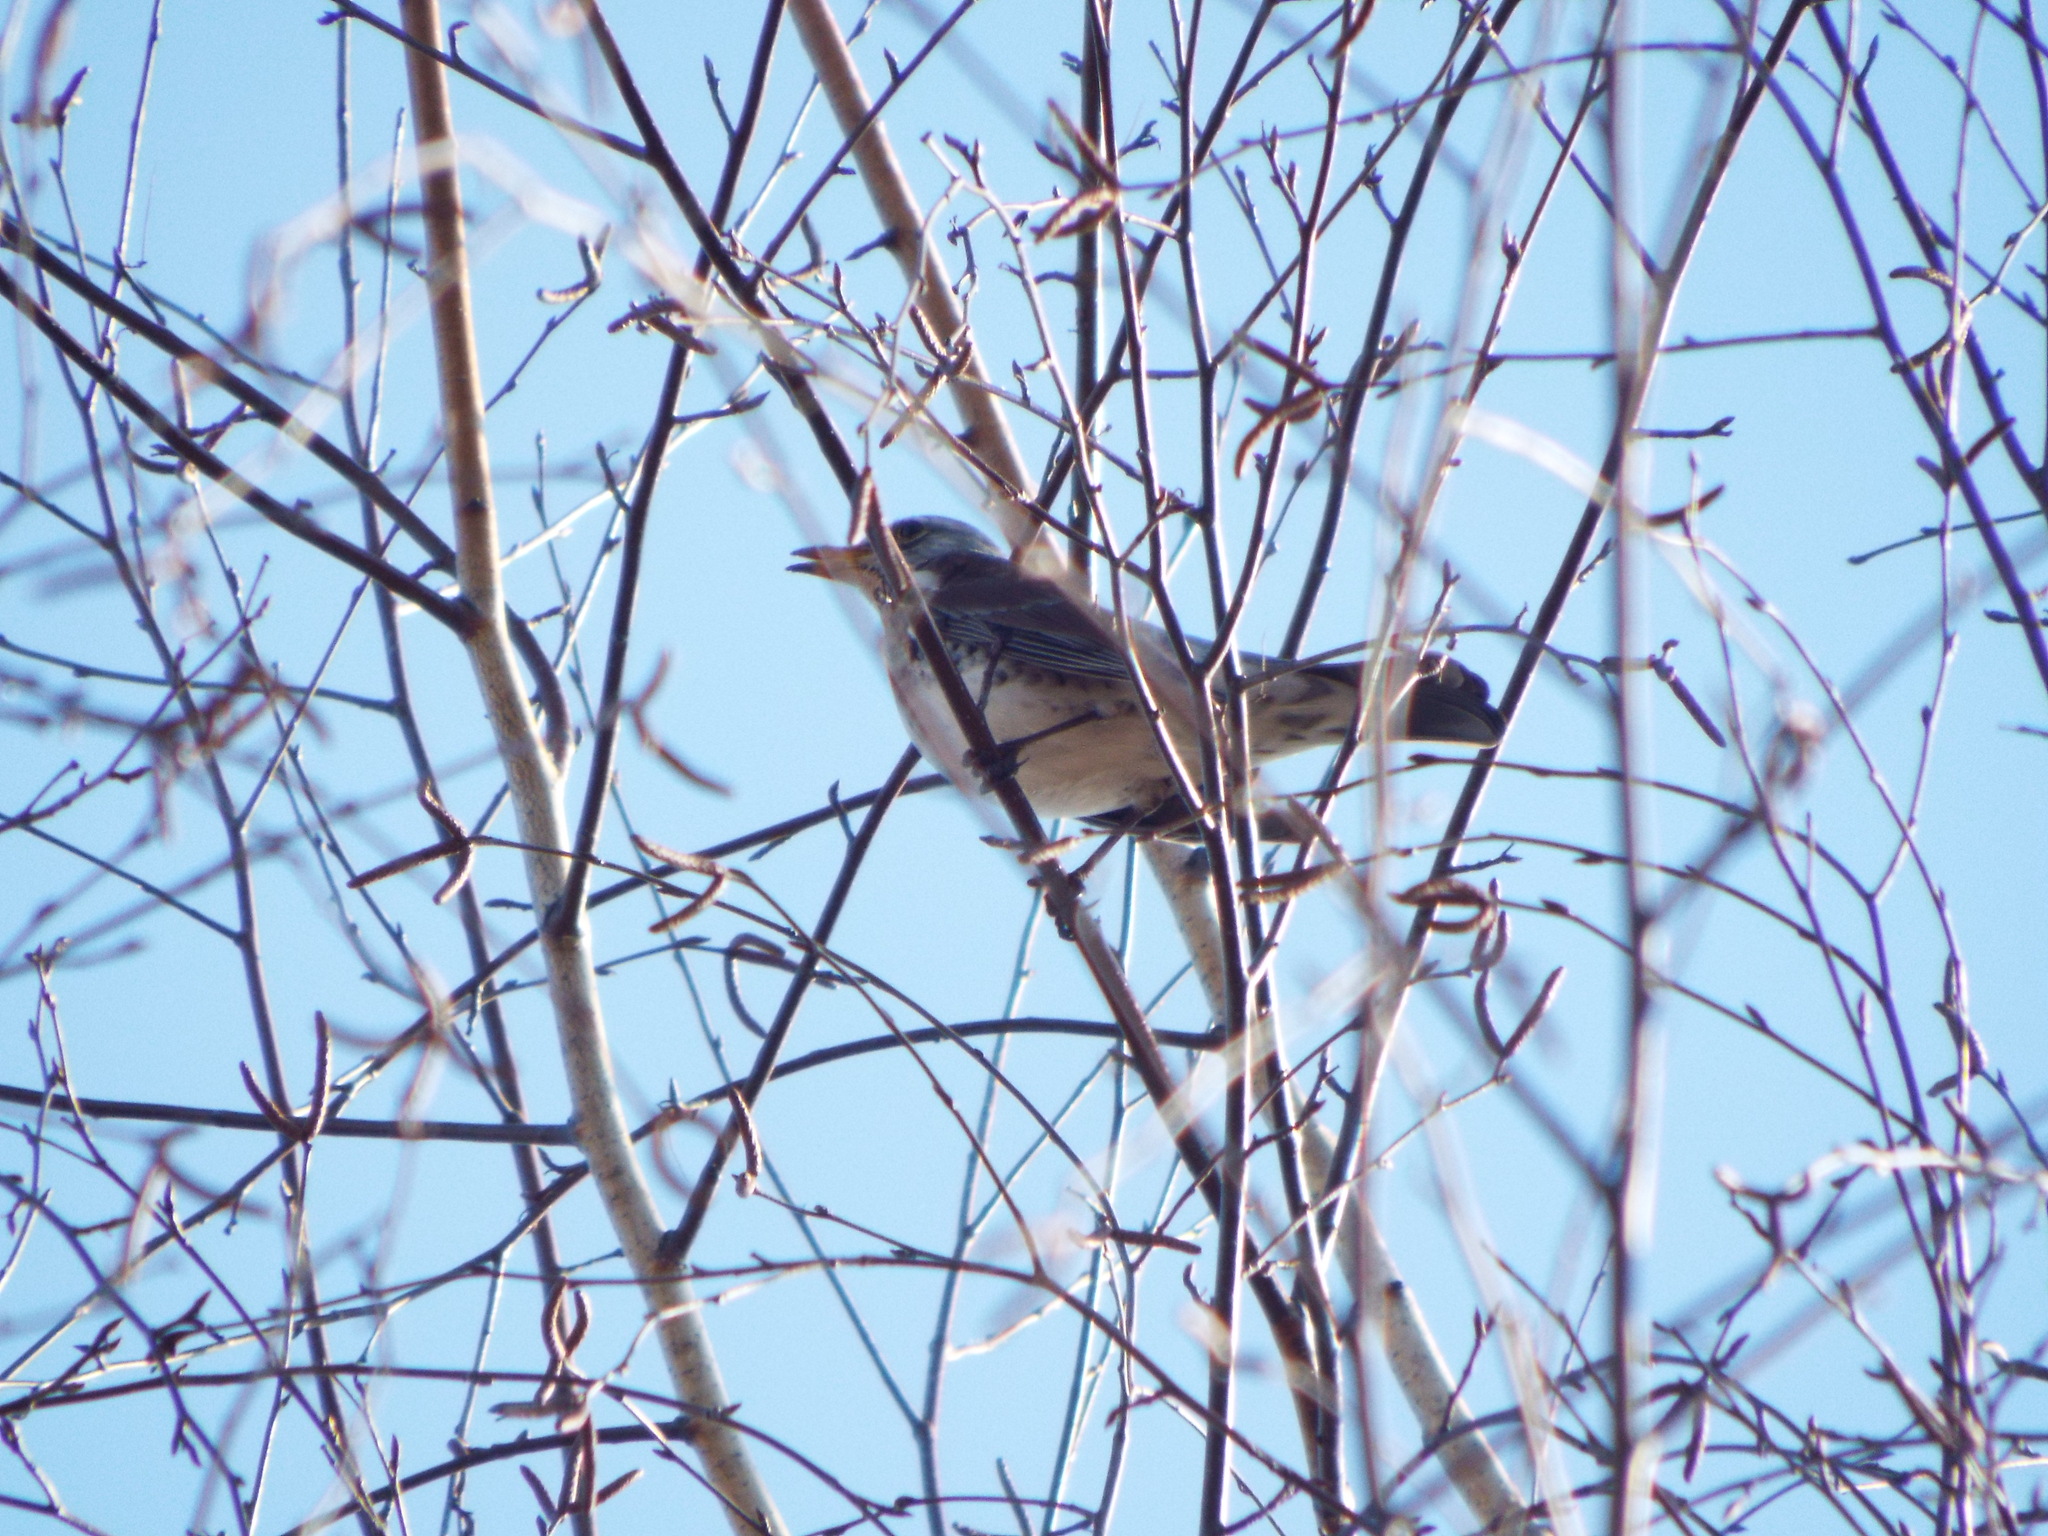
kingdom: Animalia
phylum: Chordata
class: Aves
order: Passeriformes
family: Turdidae
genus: Turdus
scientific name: Turdus pilaris
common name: Fieldfare
